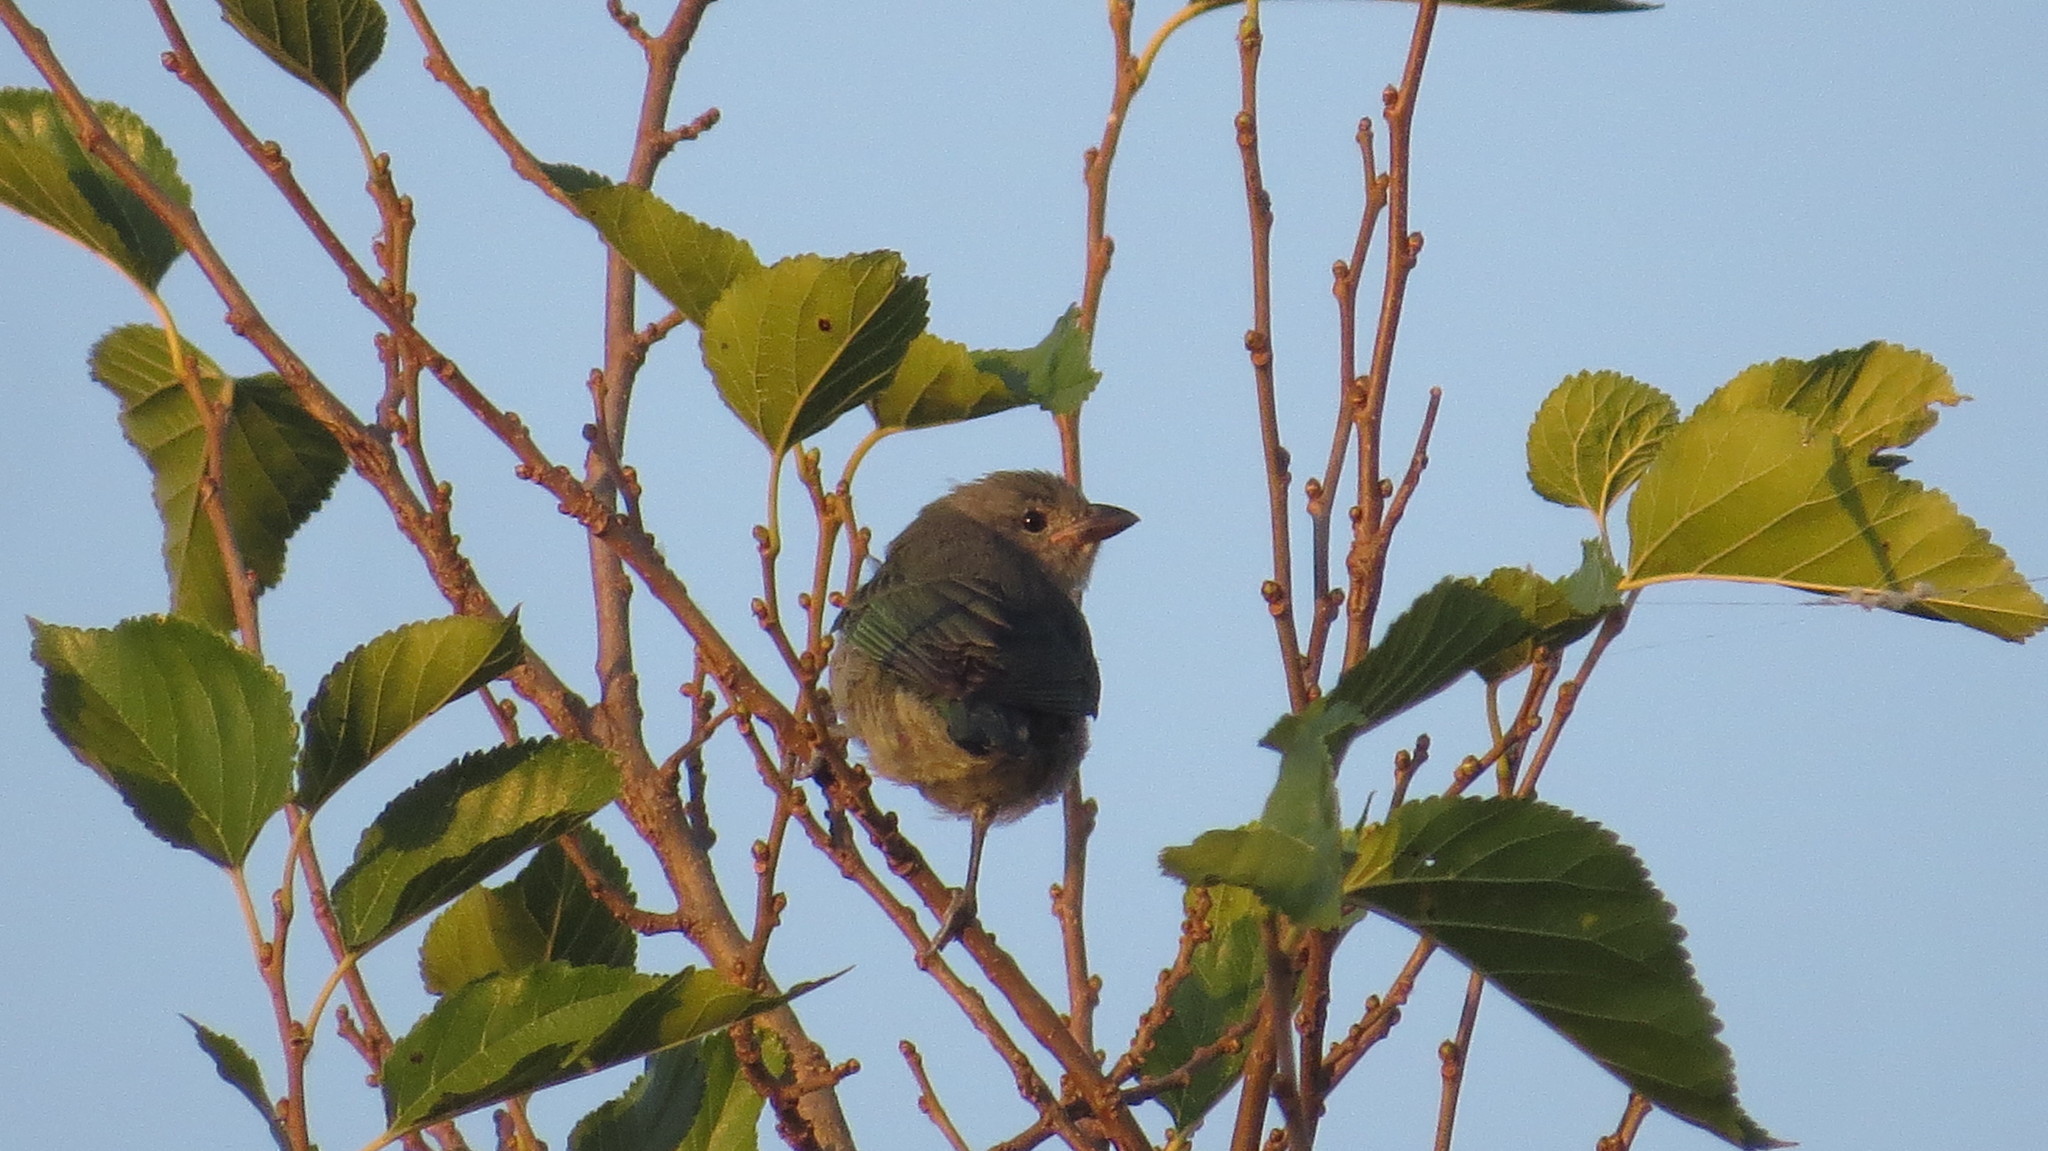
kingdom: Animalia
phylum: Chordata
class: Aves
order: Passeriformes
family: Thraupidae
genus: Thraupis
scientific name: Thraupis sayaca
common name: Sayaca tanager
